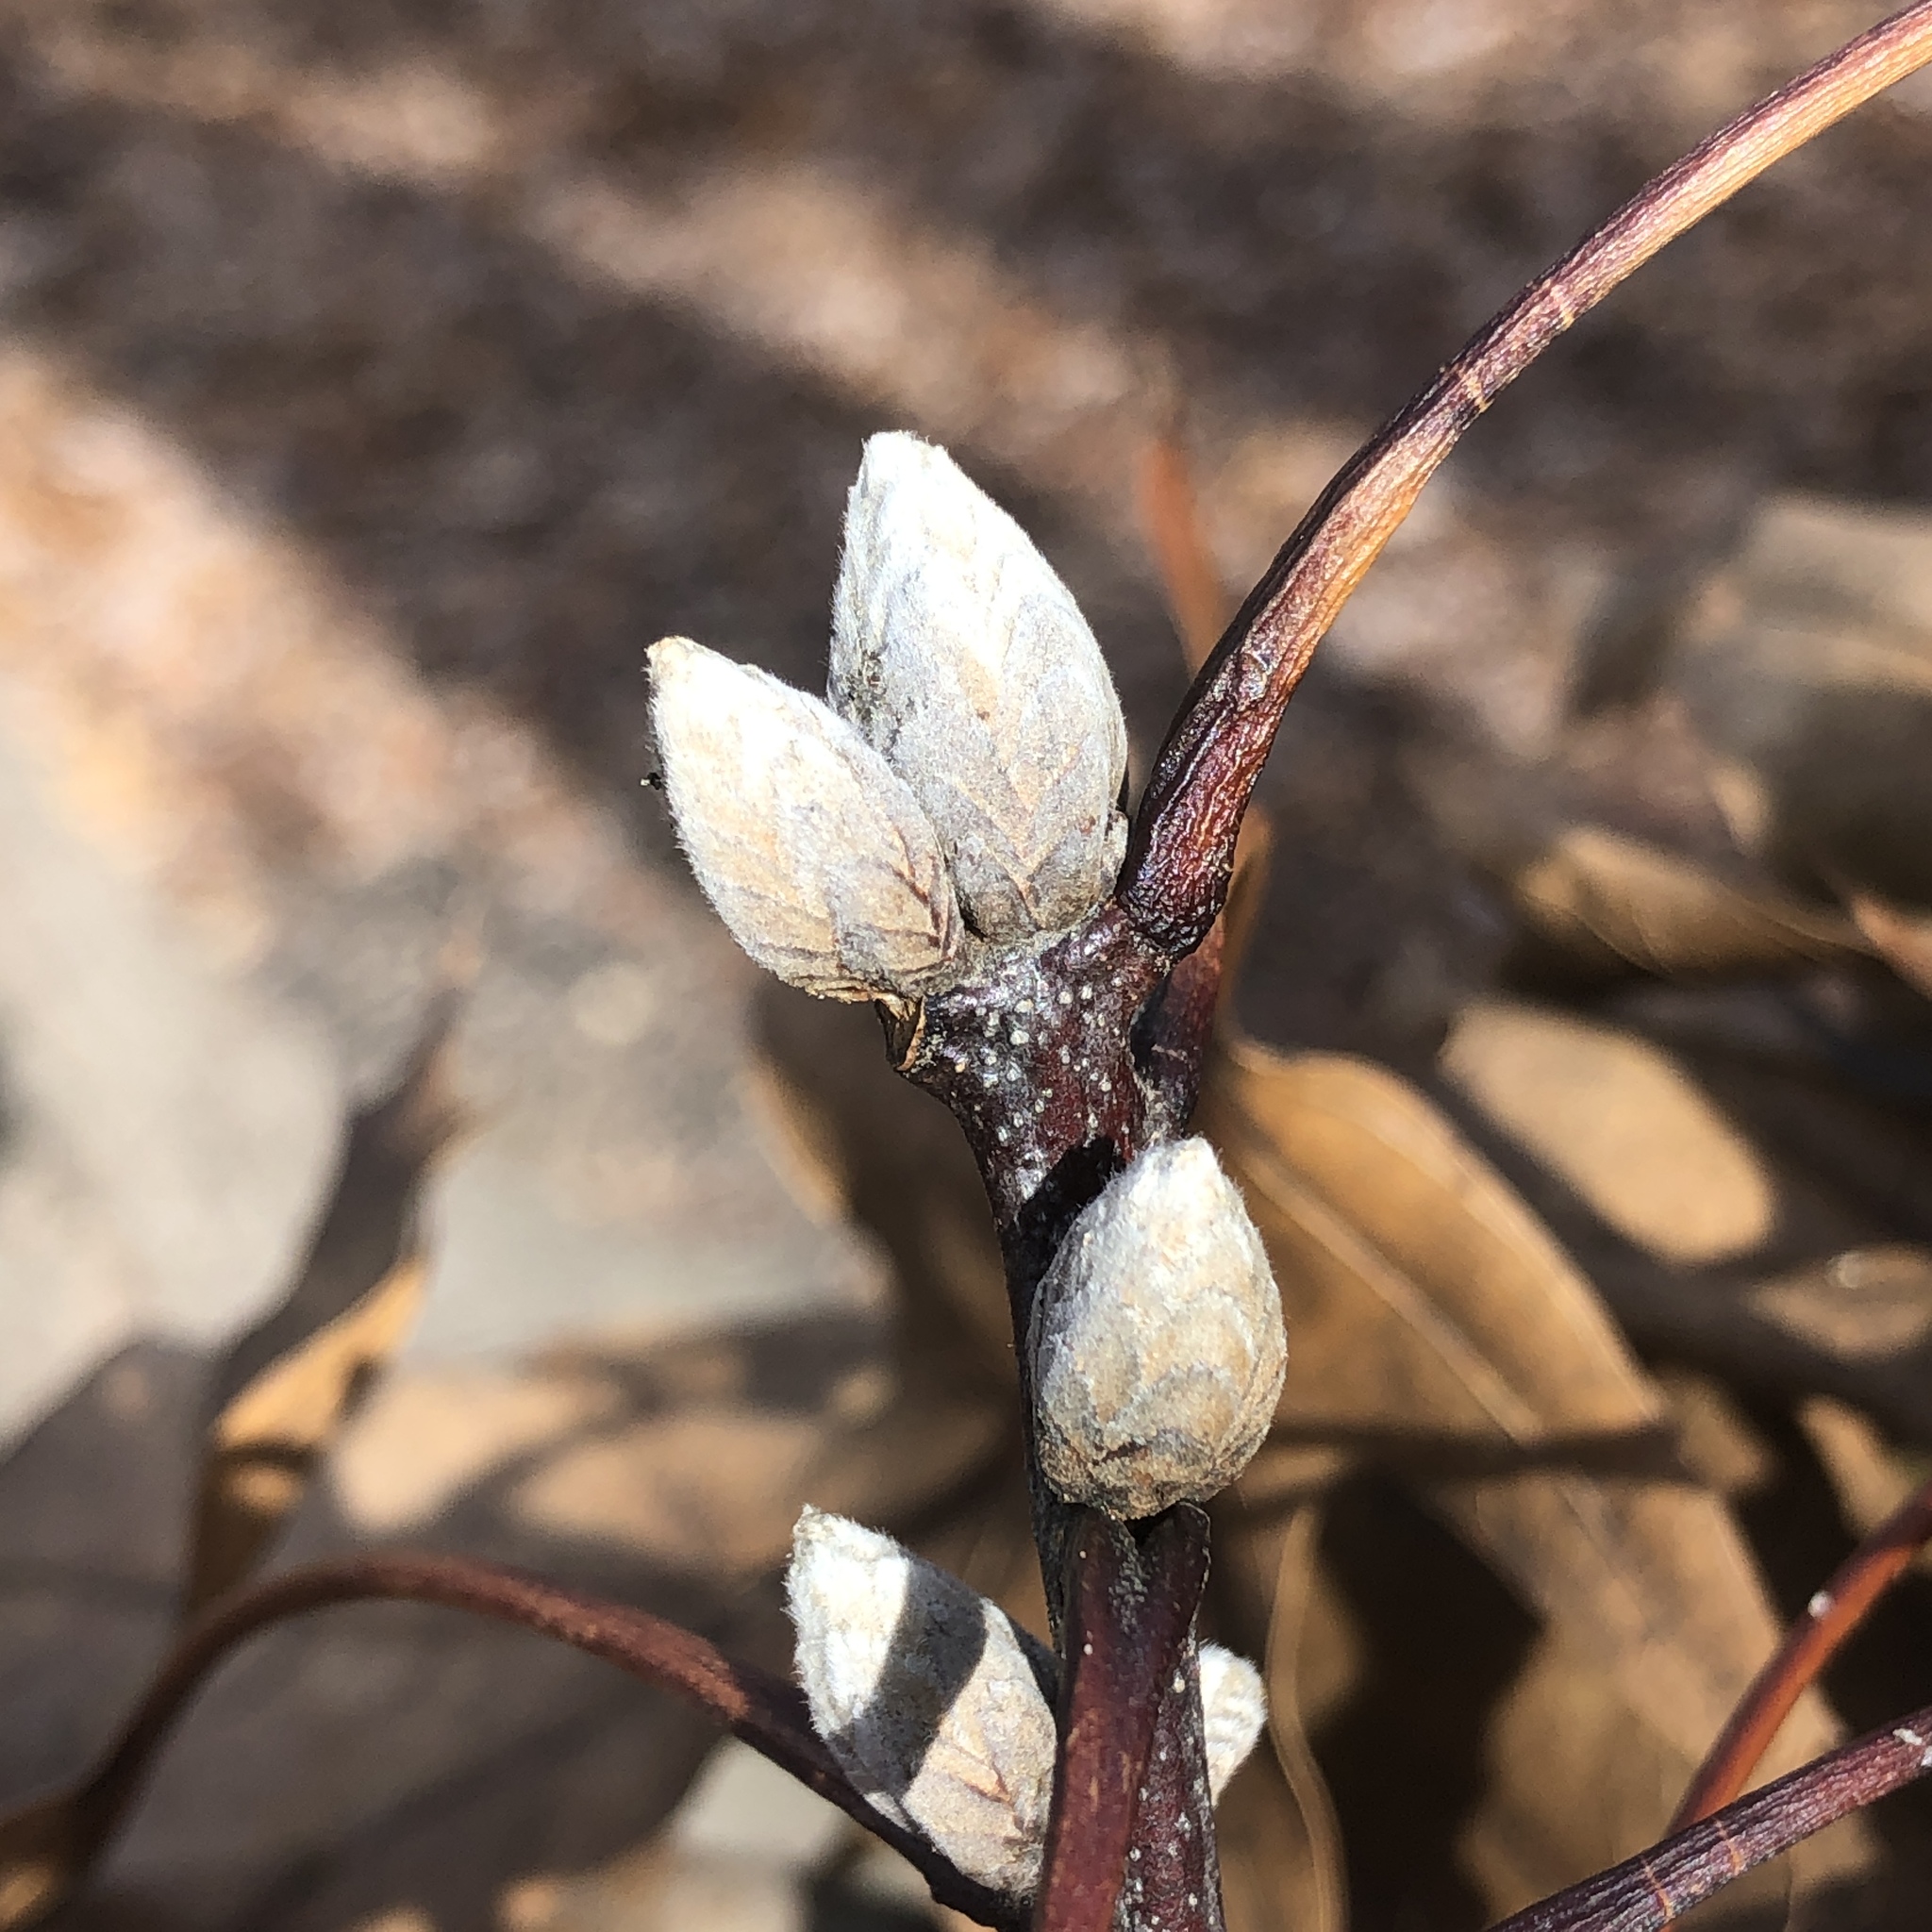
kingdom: Plantae
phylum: Tracheophyta
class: Magnoliopsida
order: Fagales
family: Fagaceae
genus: Quercus
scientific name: Quercus velutina
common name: Black oak
